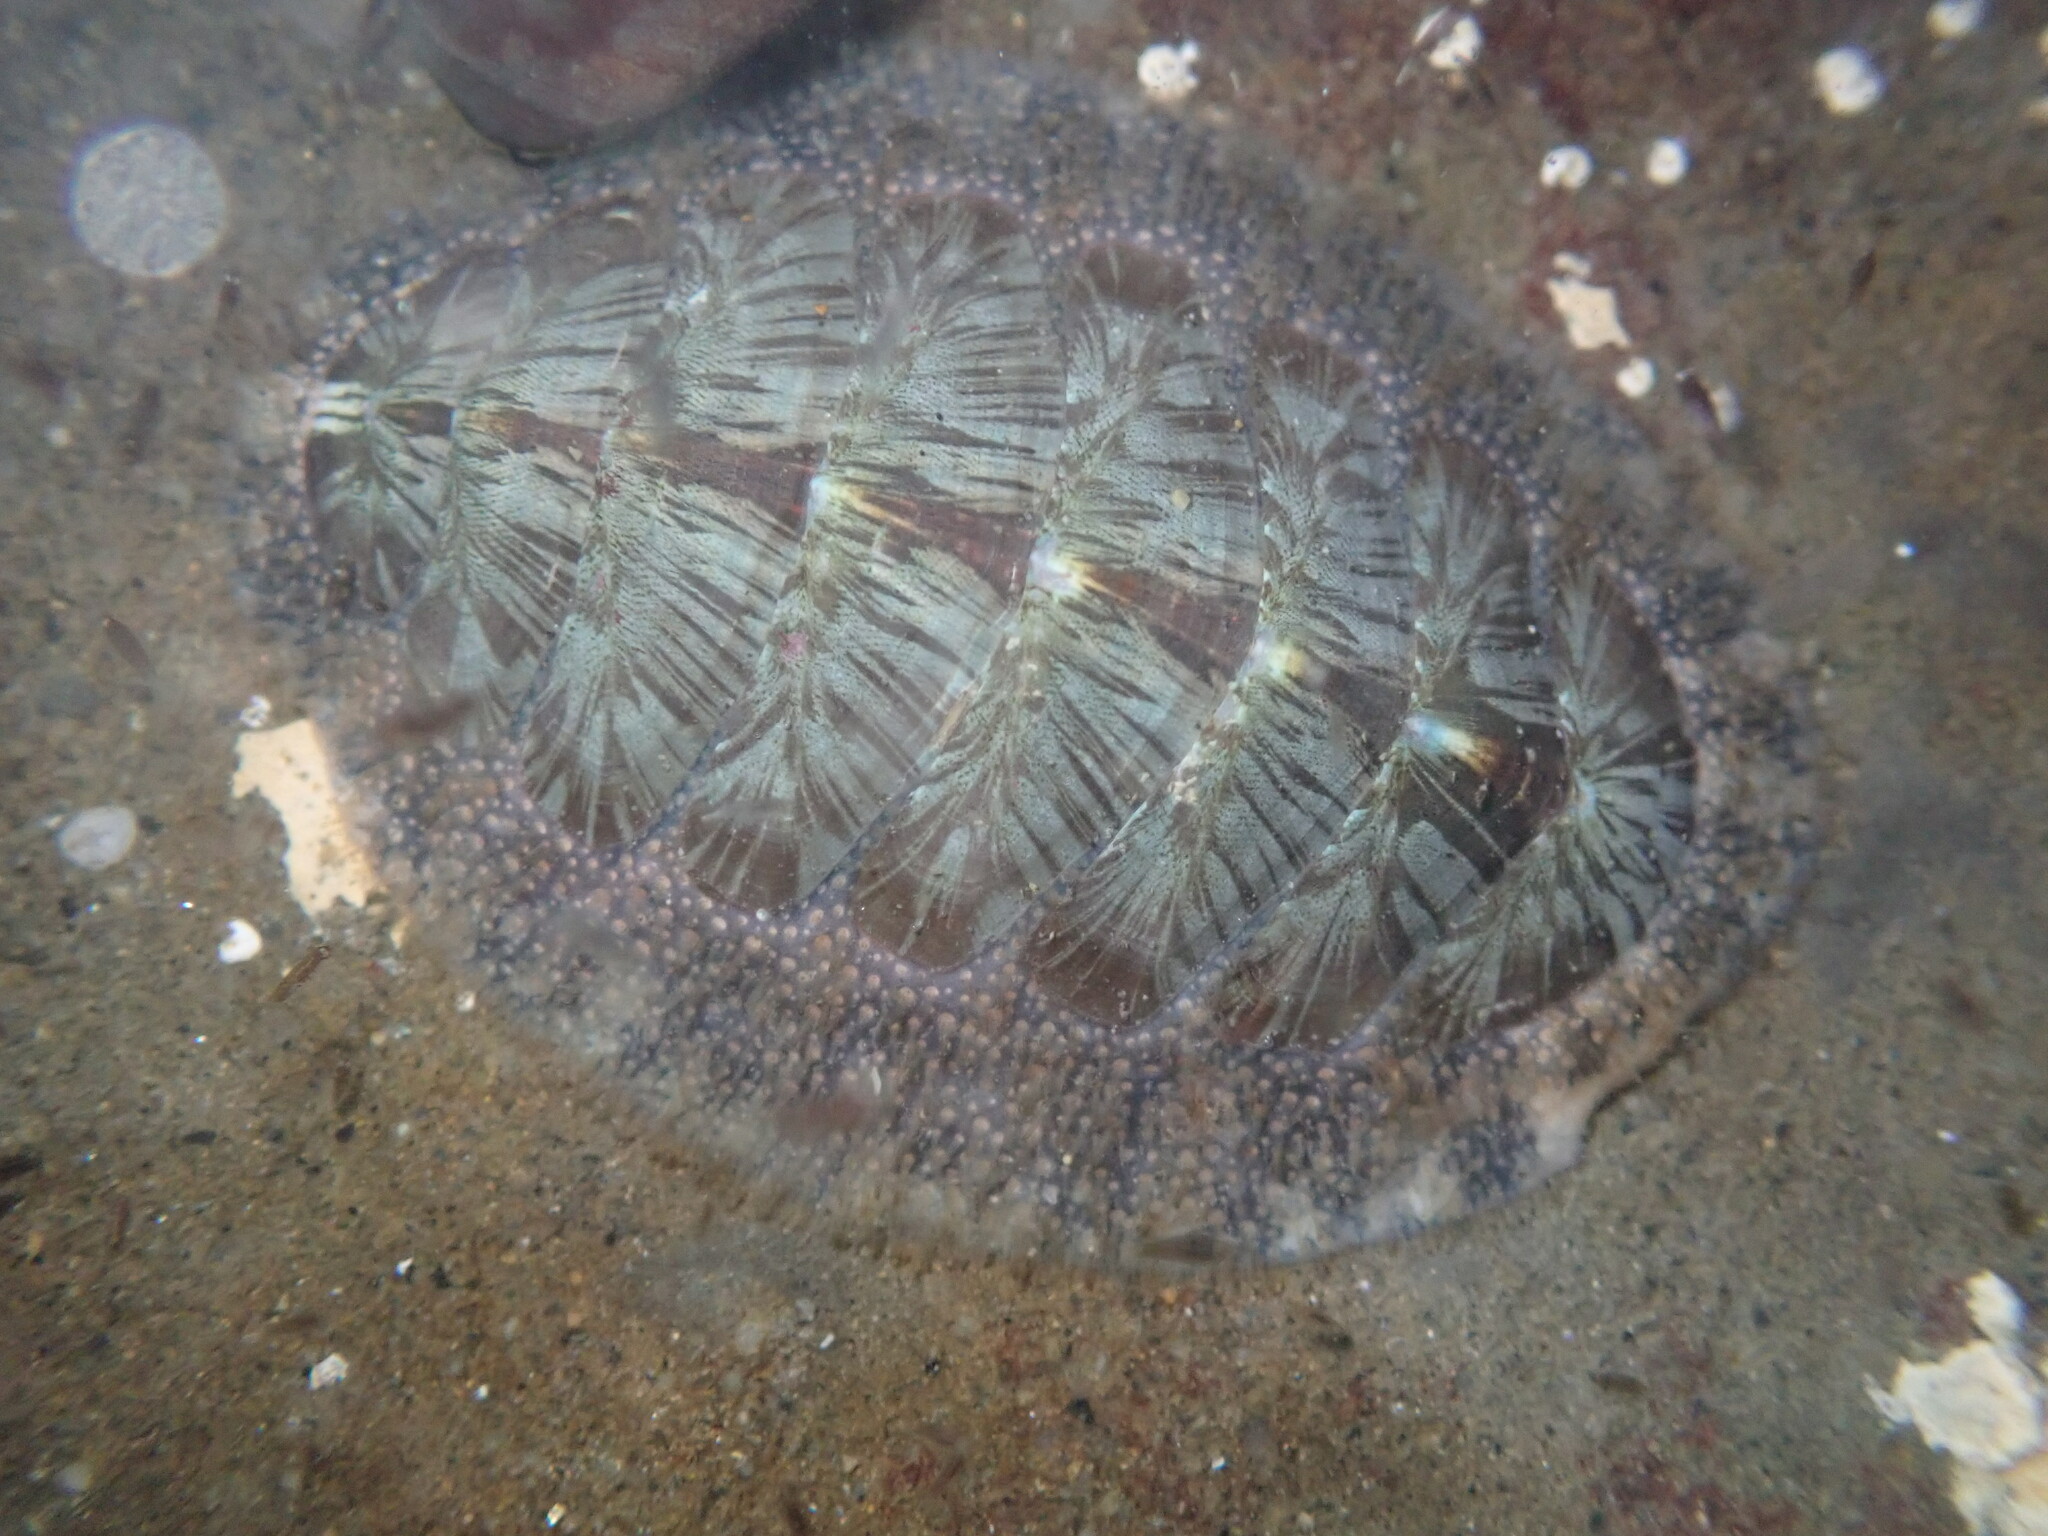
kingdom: Animalia
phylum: Mollusca
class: Polyplacophora
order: Chitonida
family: Mopaliidae
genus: Mopalia
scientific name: Mopalia lignosa
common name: Woody chiton
